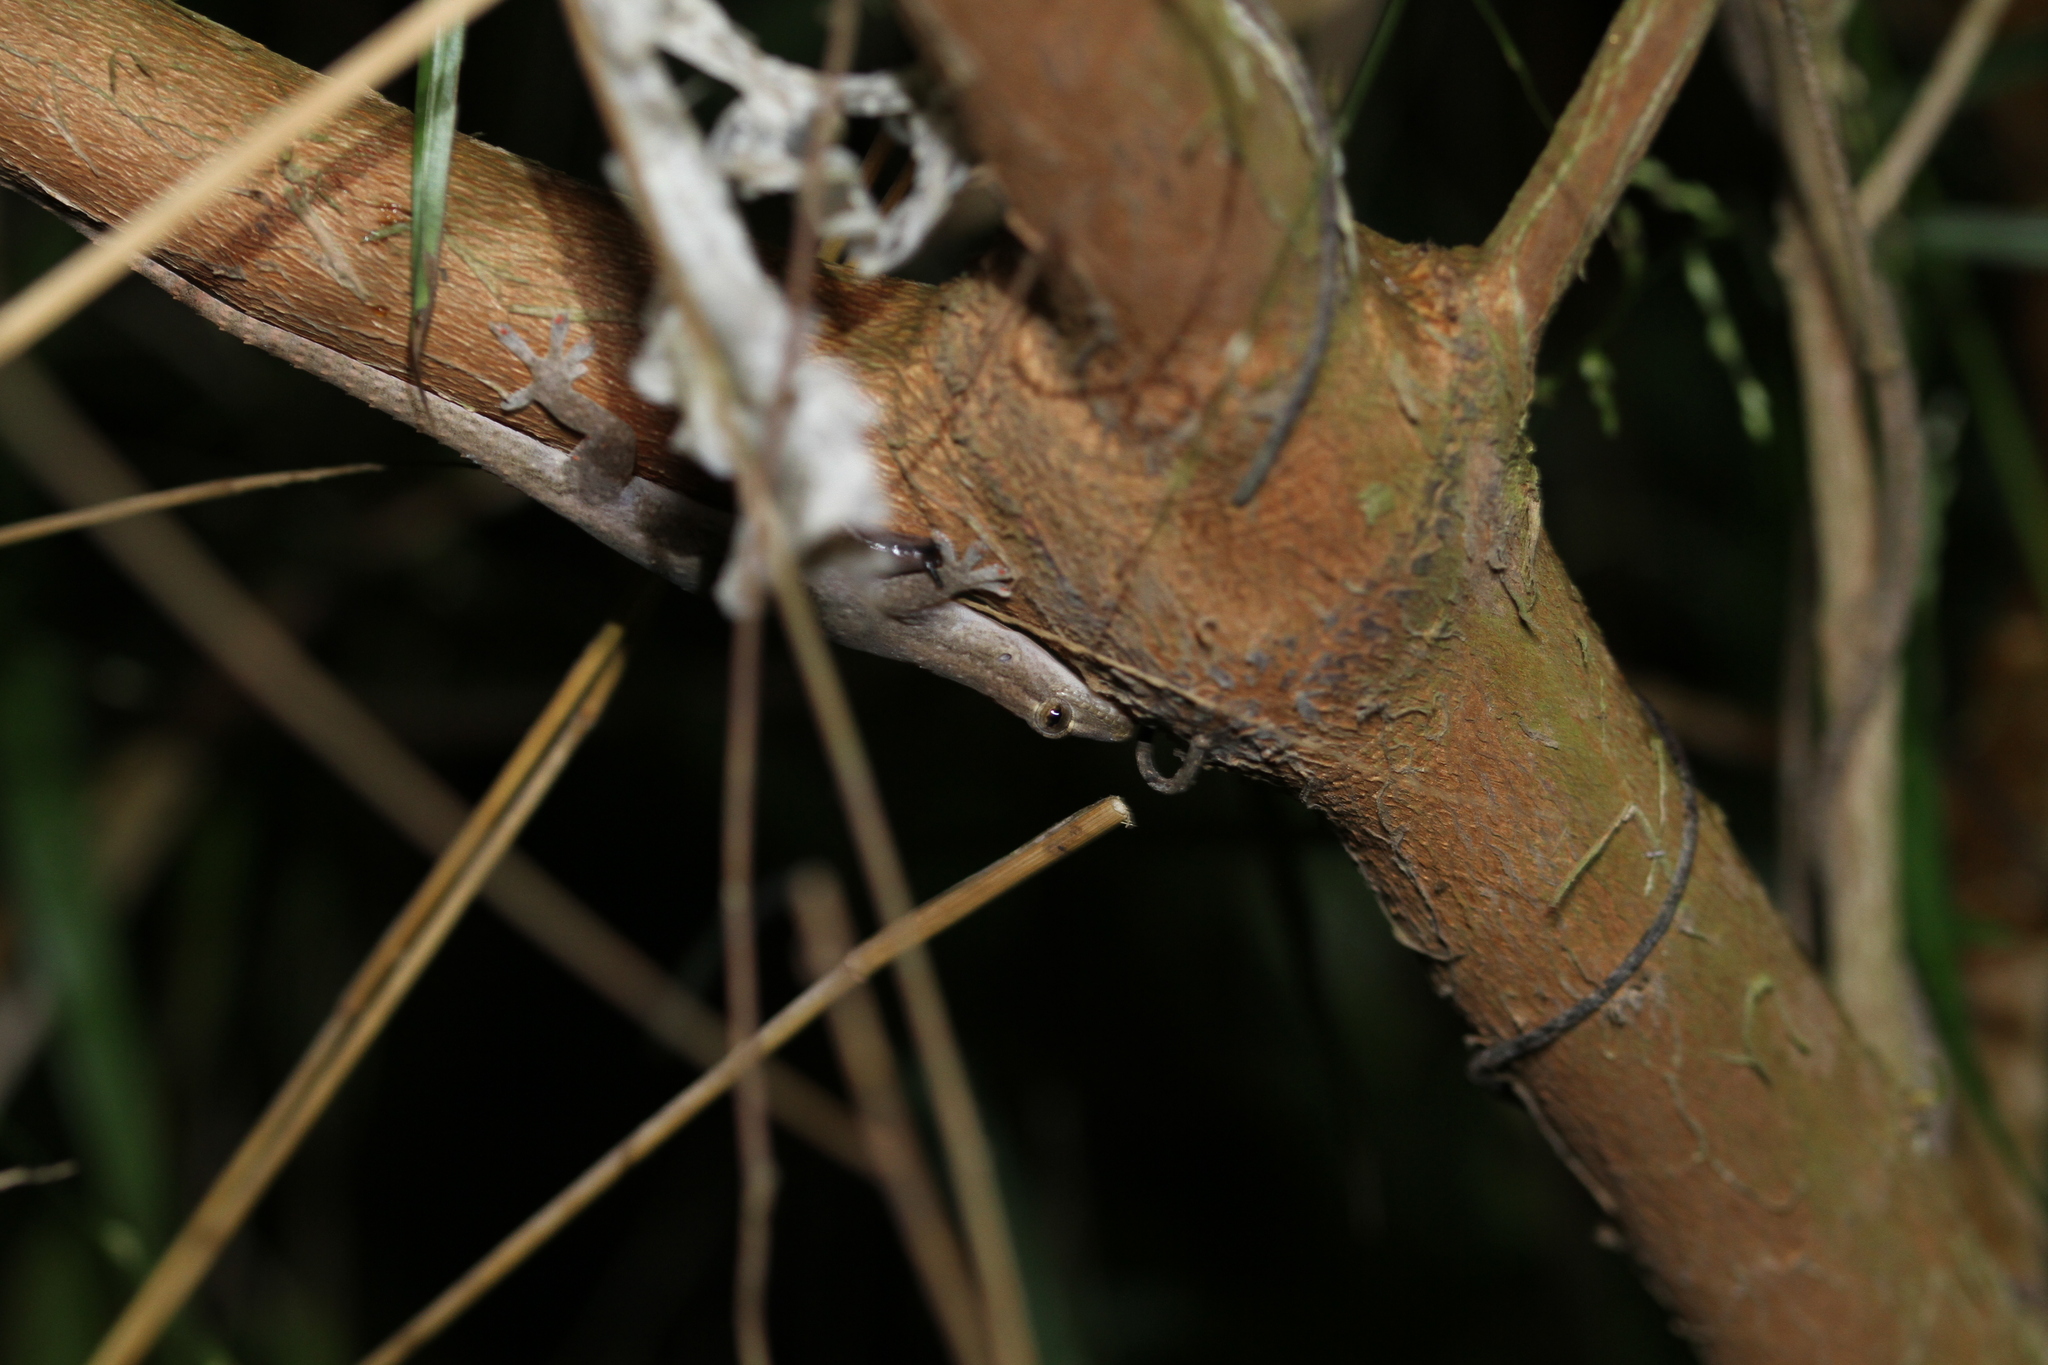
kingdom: Animalia
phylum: Chordata
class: Squamata
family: Gekkonidae
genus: Hemidactylus
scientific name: Hemidactylus frenatus
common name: Common house gecko
